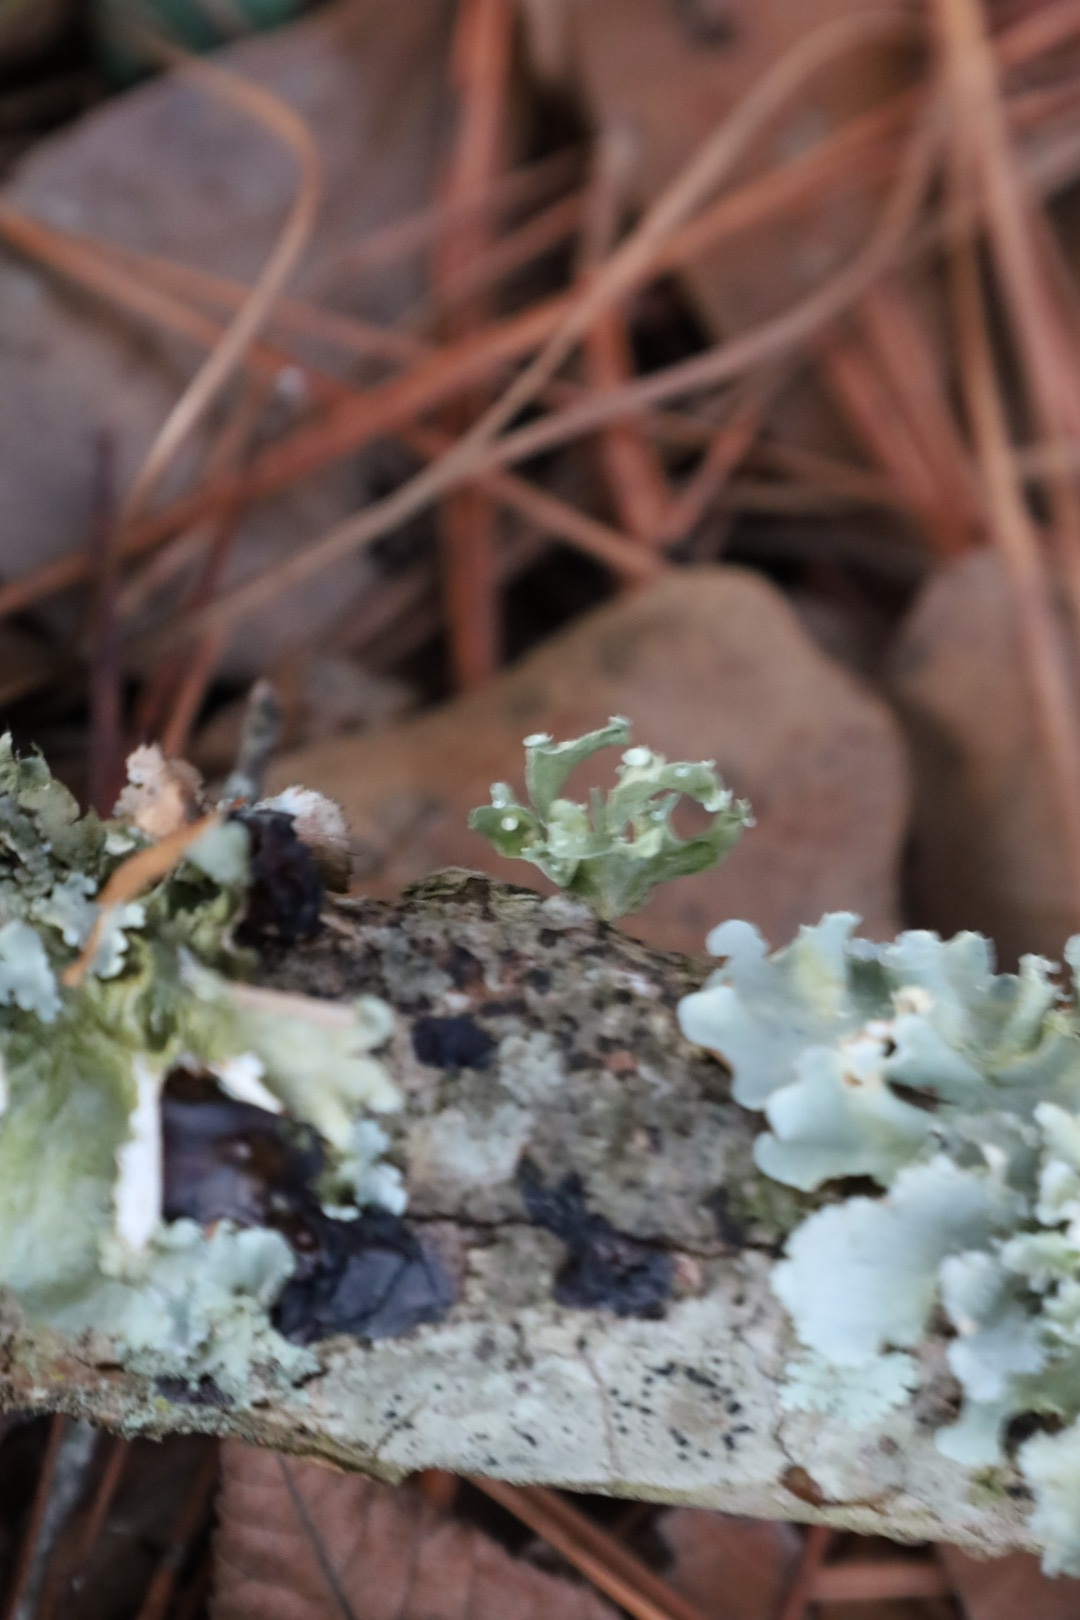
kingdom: Fungi
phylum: Ascomycota
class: Lecanoromycetes
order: Lecanorales
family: Ramalinaceae
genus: Ramalina
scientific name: Ramalina
